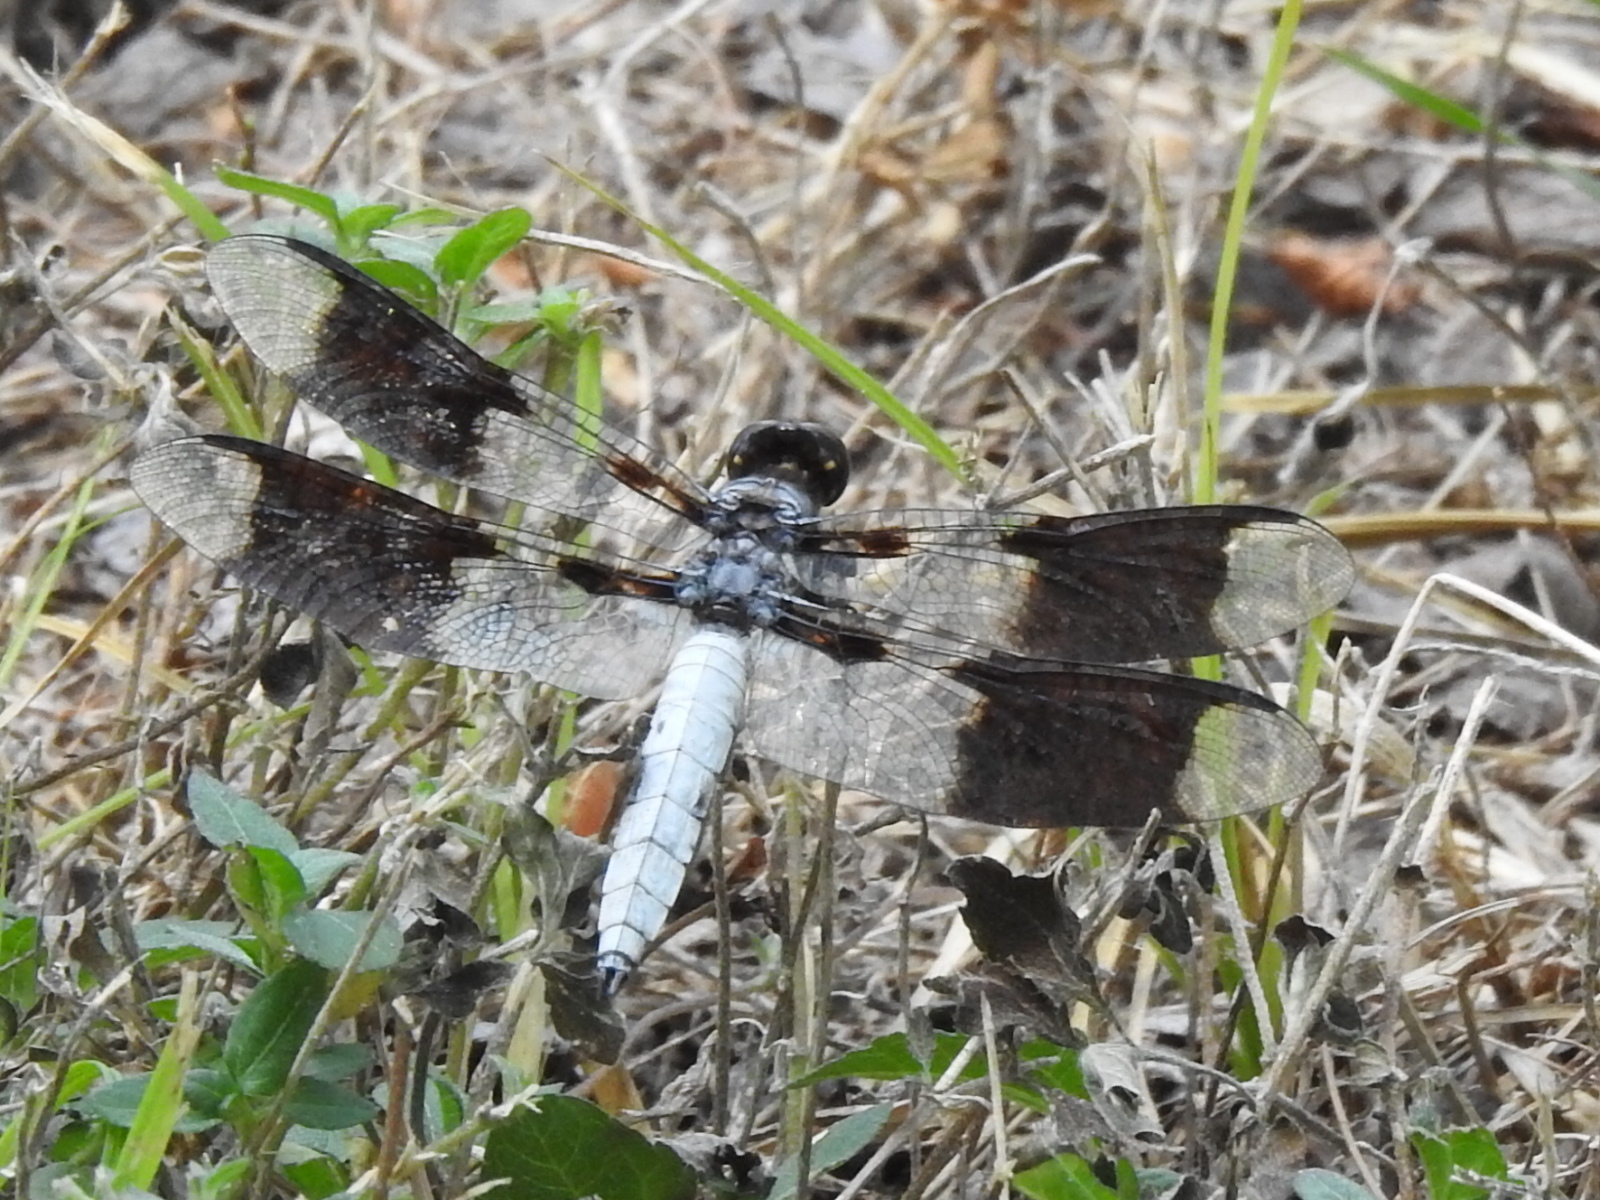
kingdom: Animalia
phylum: Arthropoda
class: Insecta
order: Odonata
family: Libellulidae
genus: Plathemis
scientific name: Plathemis lydia
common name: Common whitetail
